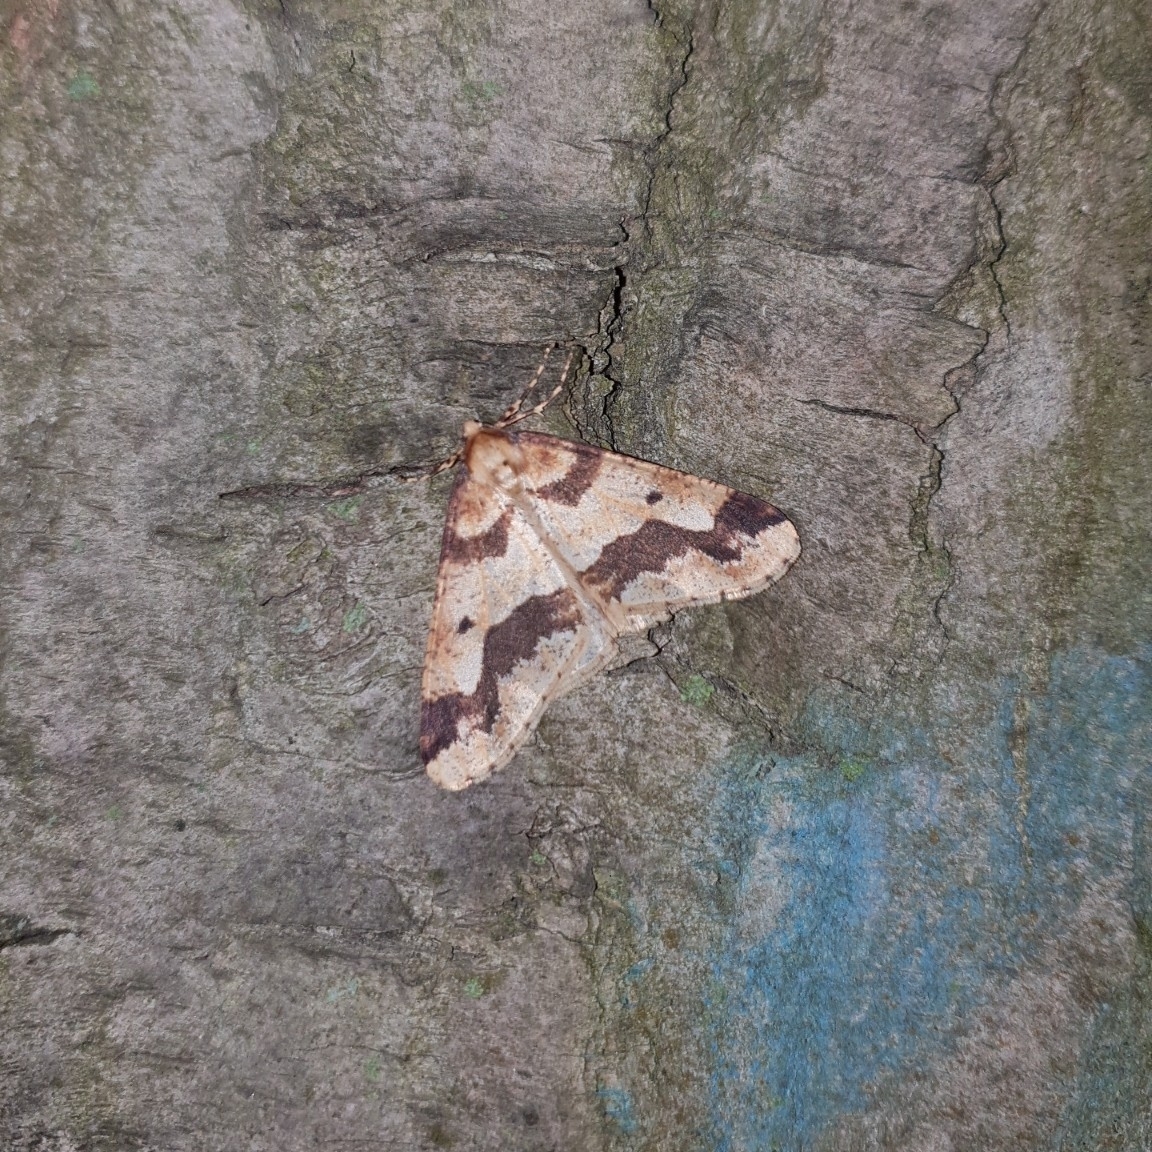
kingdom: Animalia
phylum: Arthropoda
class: Insecta
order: Lepidoptera
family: Geometridae
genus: Erannis
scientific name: Erannis defoliaria
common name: Mottled umber
